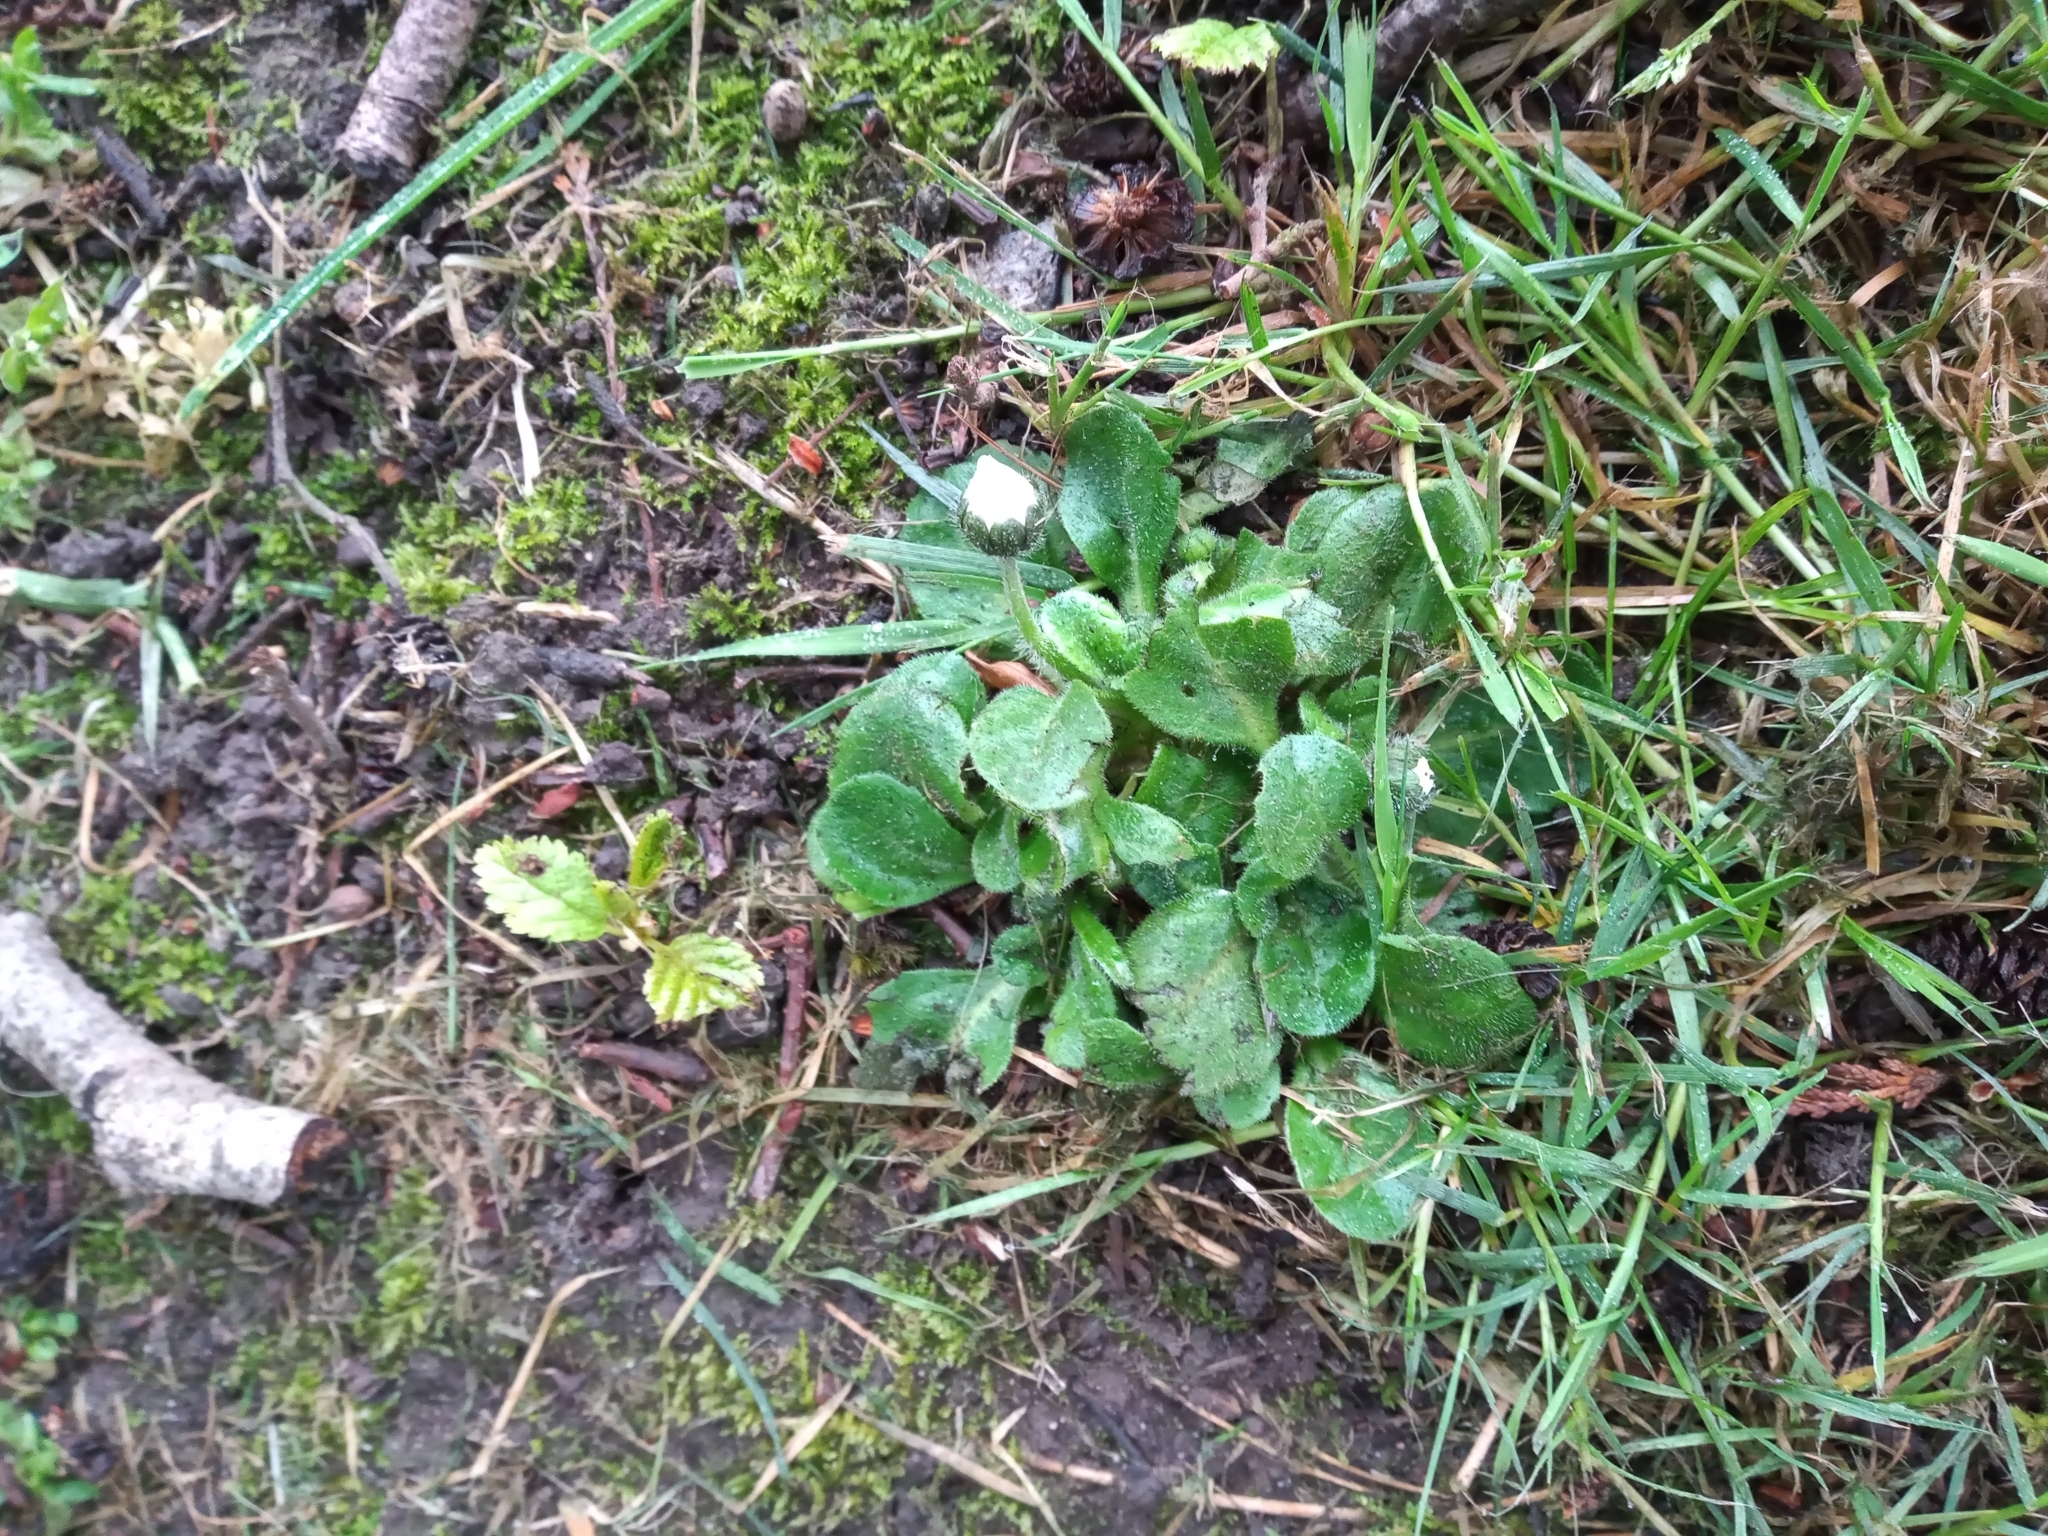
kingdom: Plantae
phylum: Tracheophyta
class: Magnoliopsida
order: Asterales
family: Asteraceae
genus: Bellis
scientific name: Bellis perennis
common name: Lawndaisy
